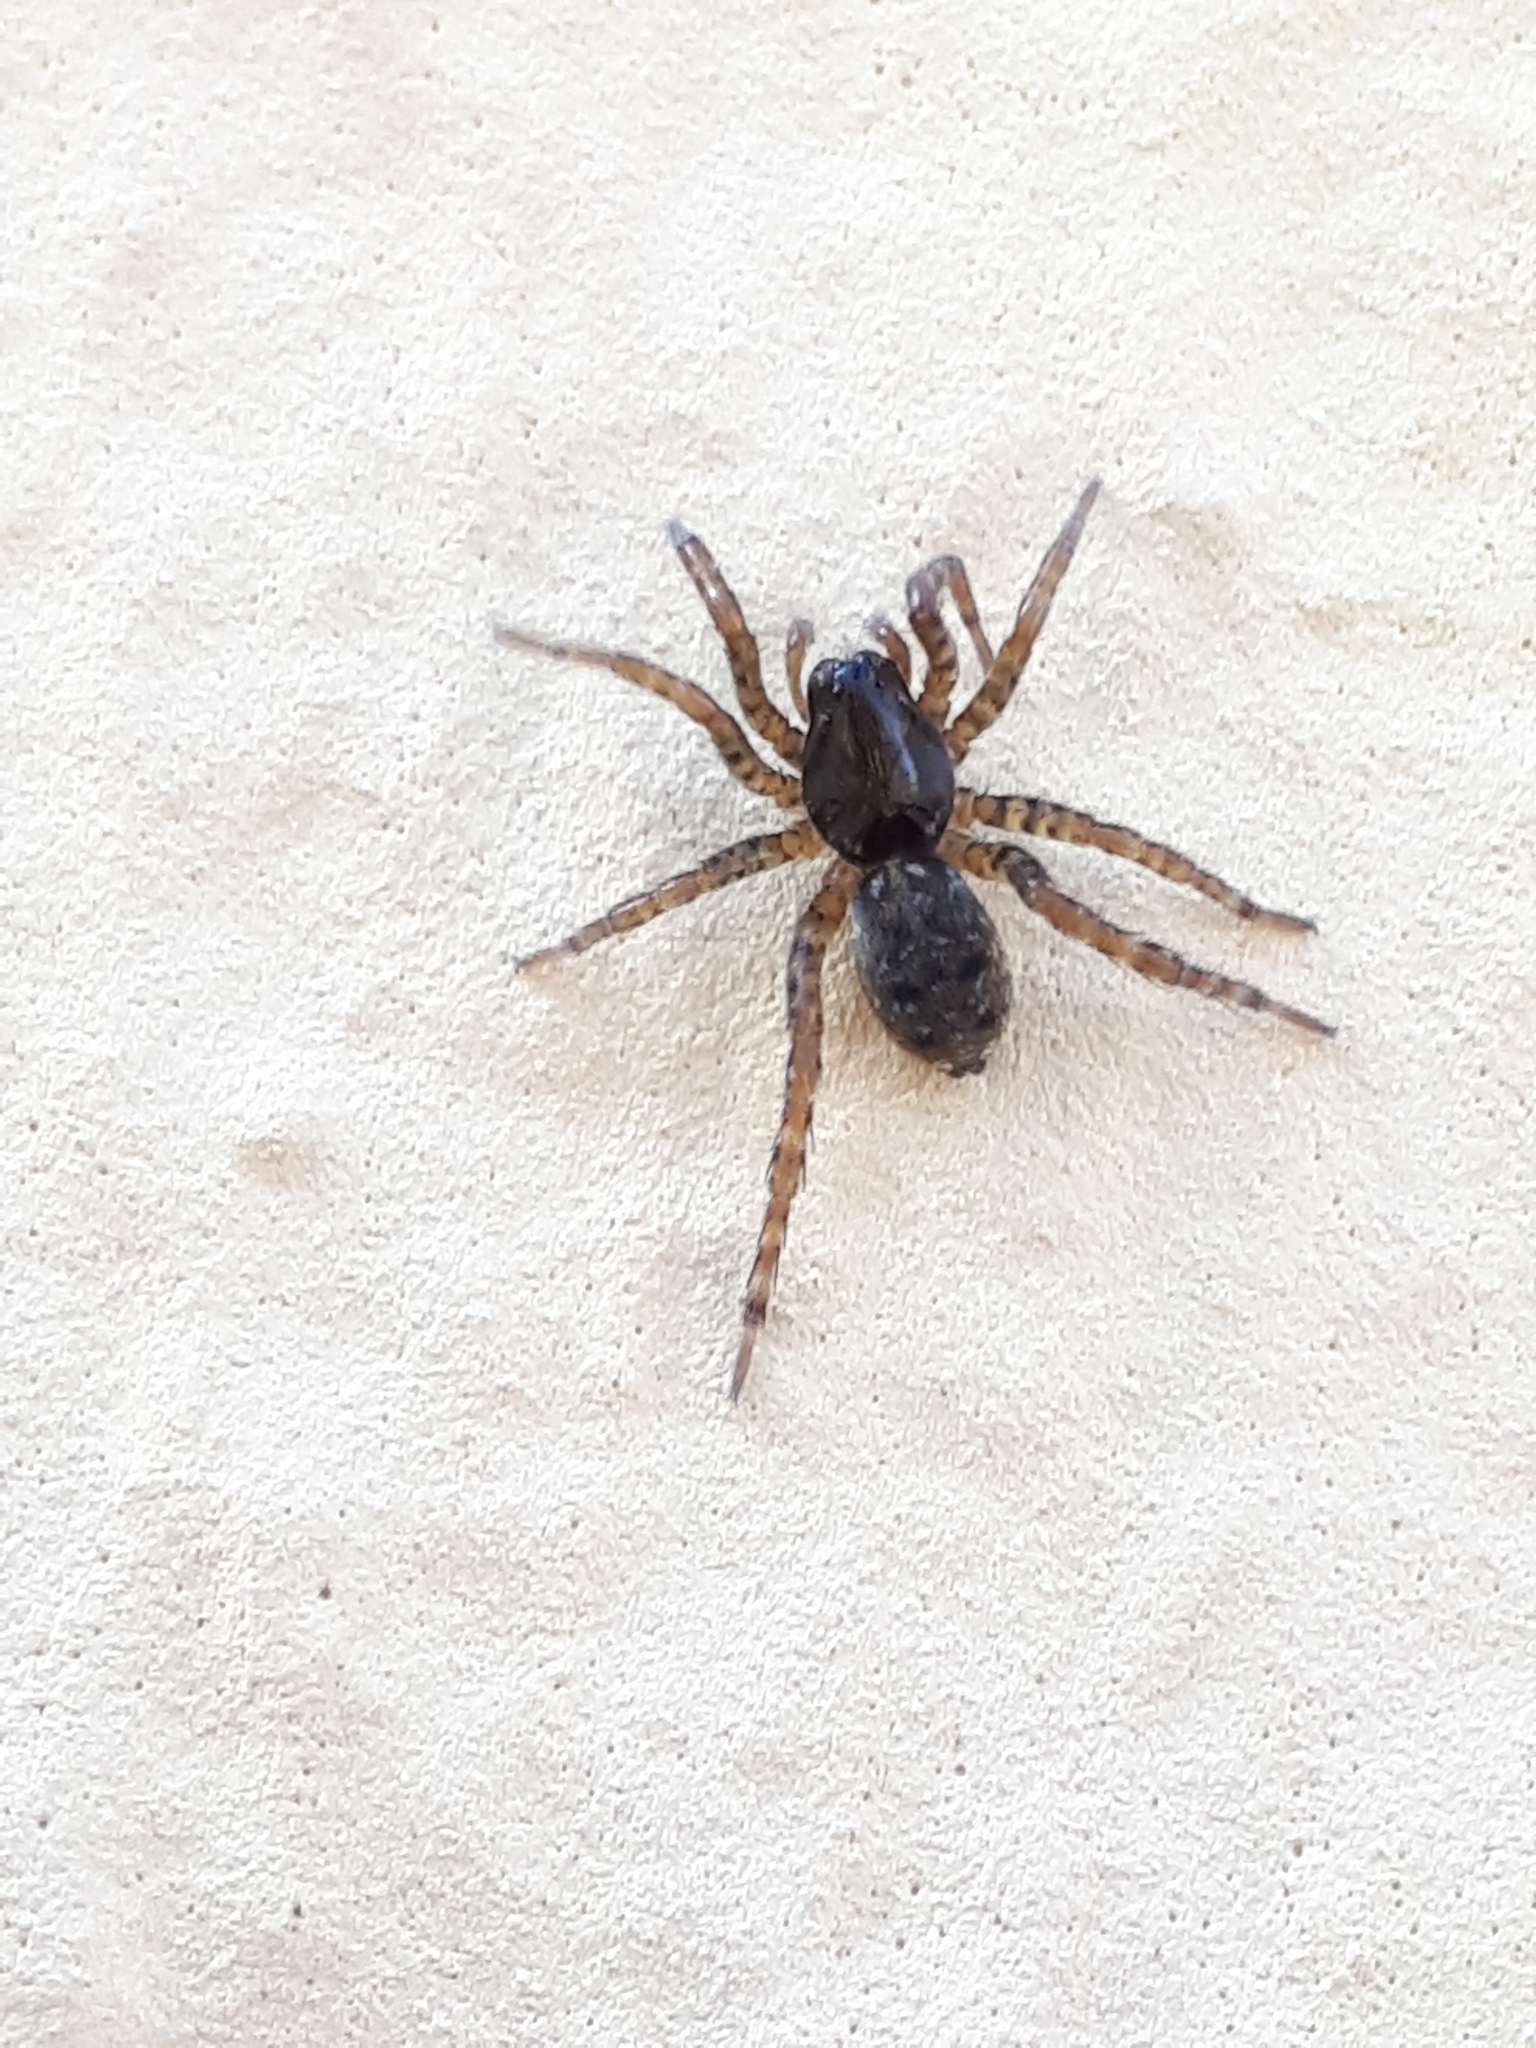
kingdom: Animalia
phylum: Arthropoda
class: Arachnida
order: Araneae
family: Lycosidae
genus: Arctosa
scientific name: Arctosa leopardus
